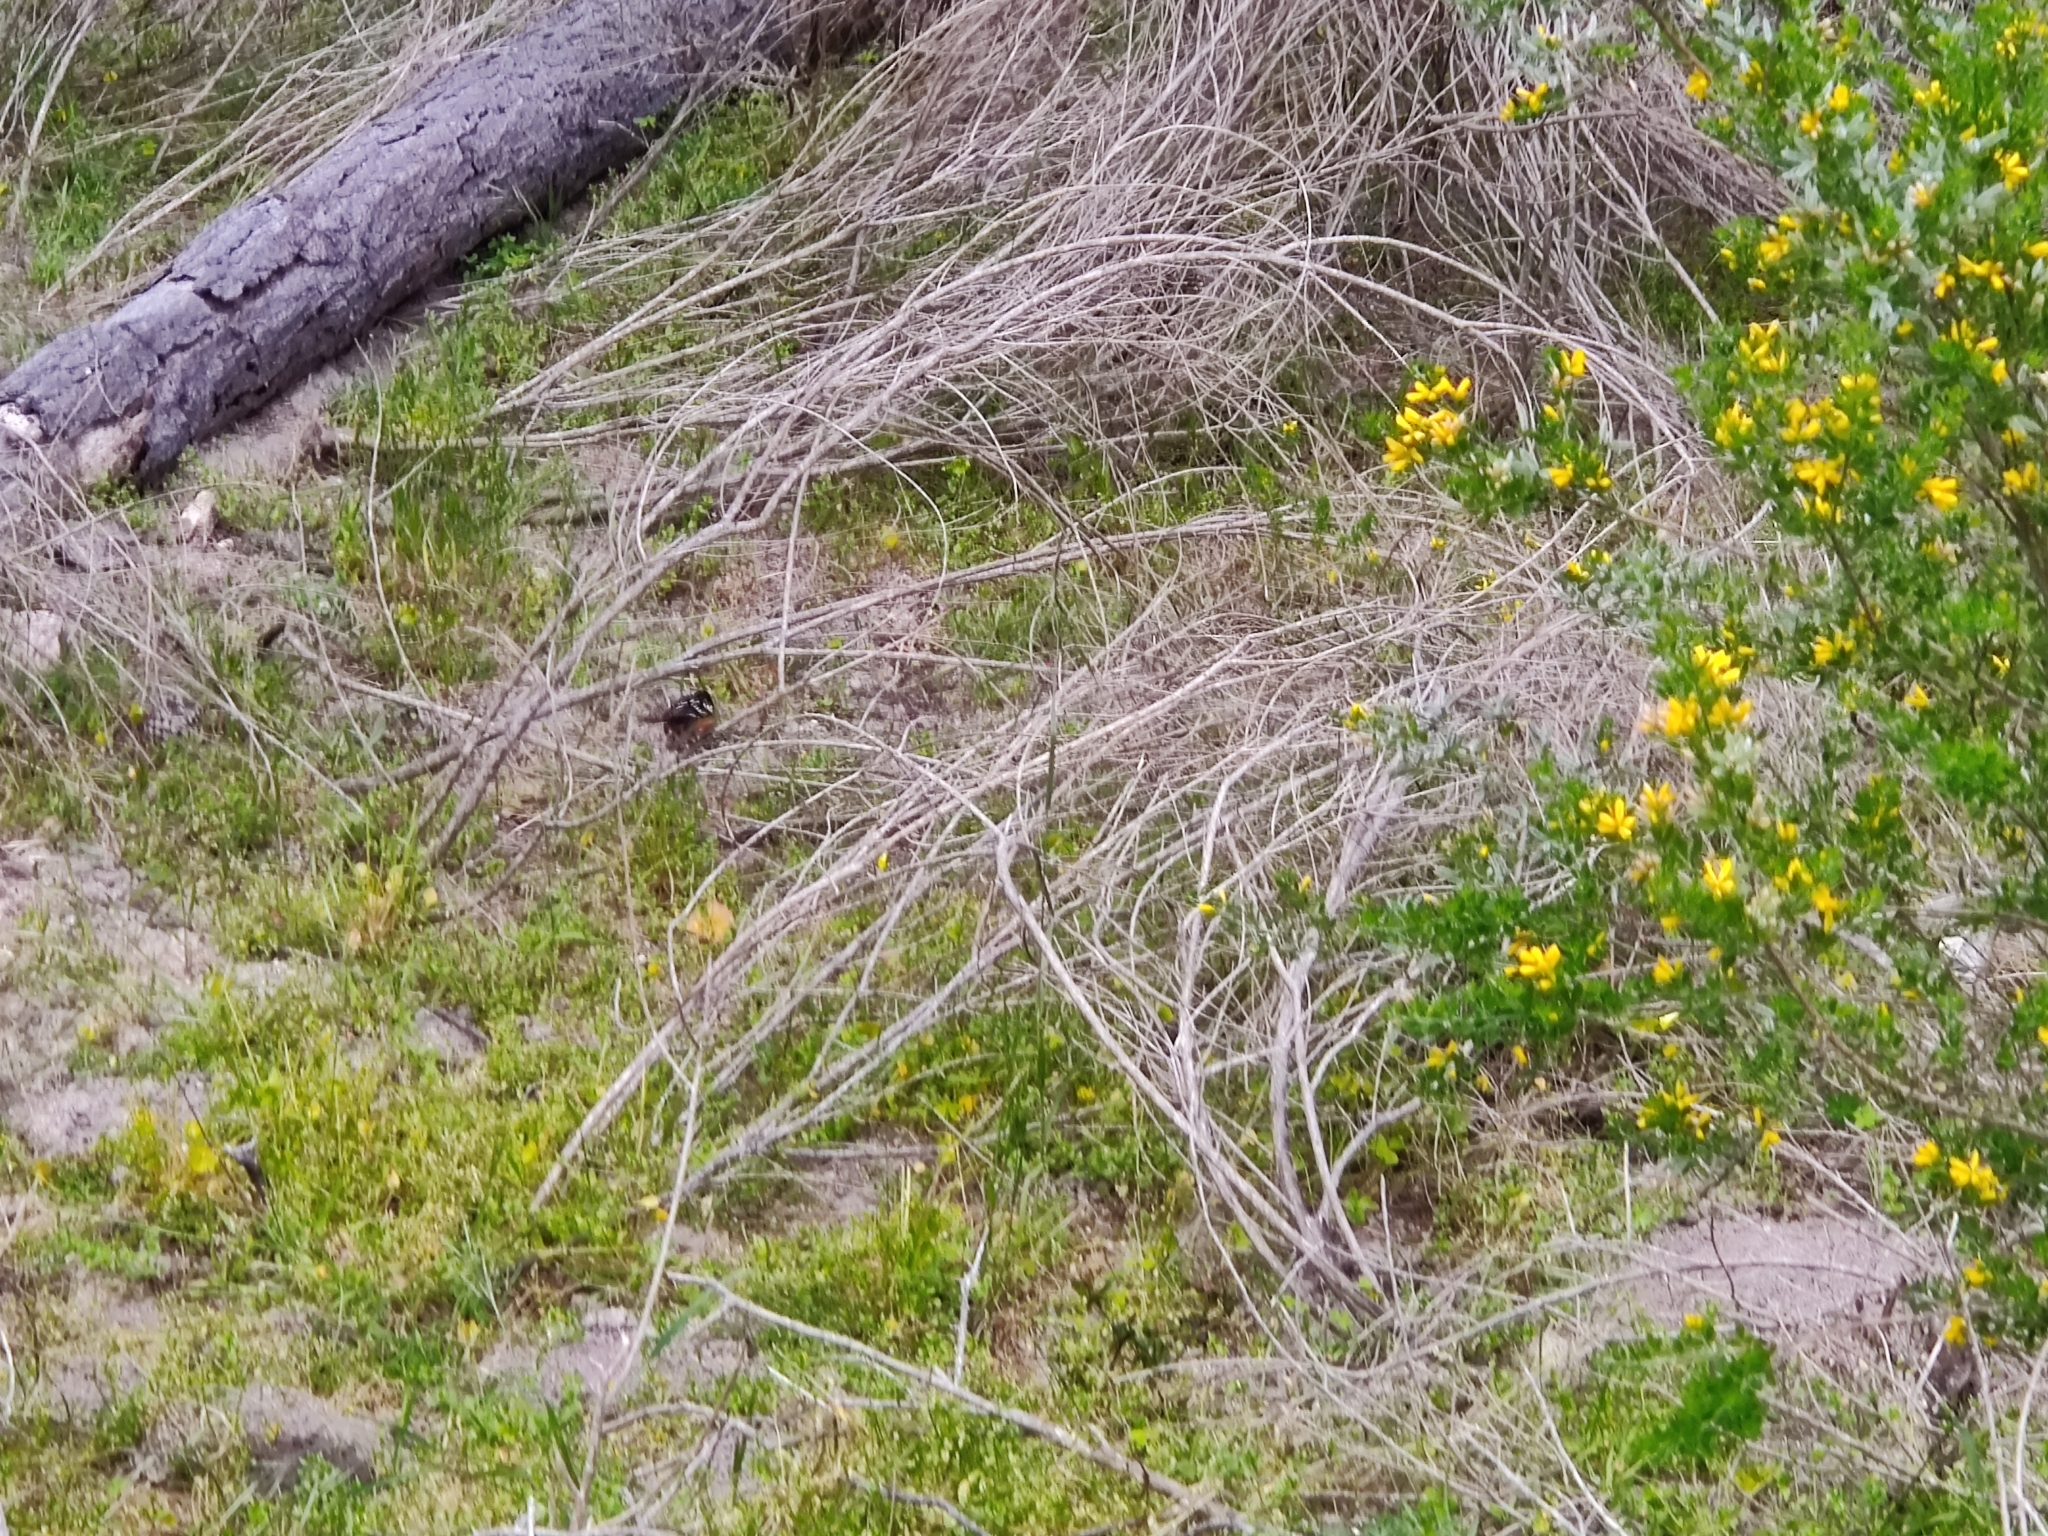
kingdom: Animalia
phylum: Chordata
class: Aves
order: Passeriformes
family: Passerellidae
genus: Pipilo
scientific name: Pipilo maculatus
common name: Spotted towhee
